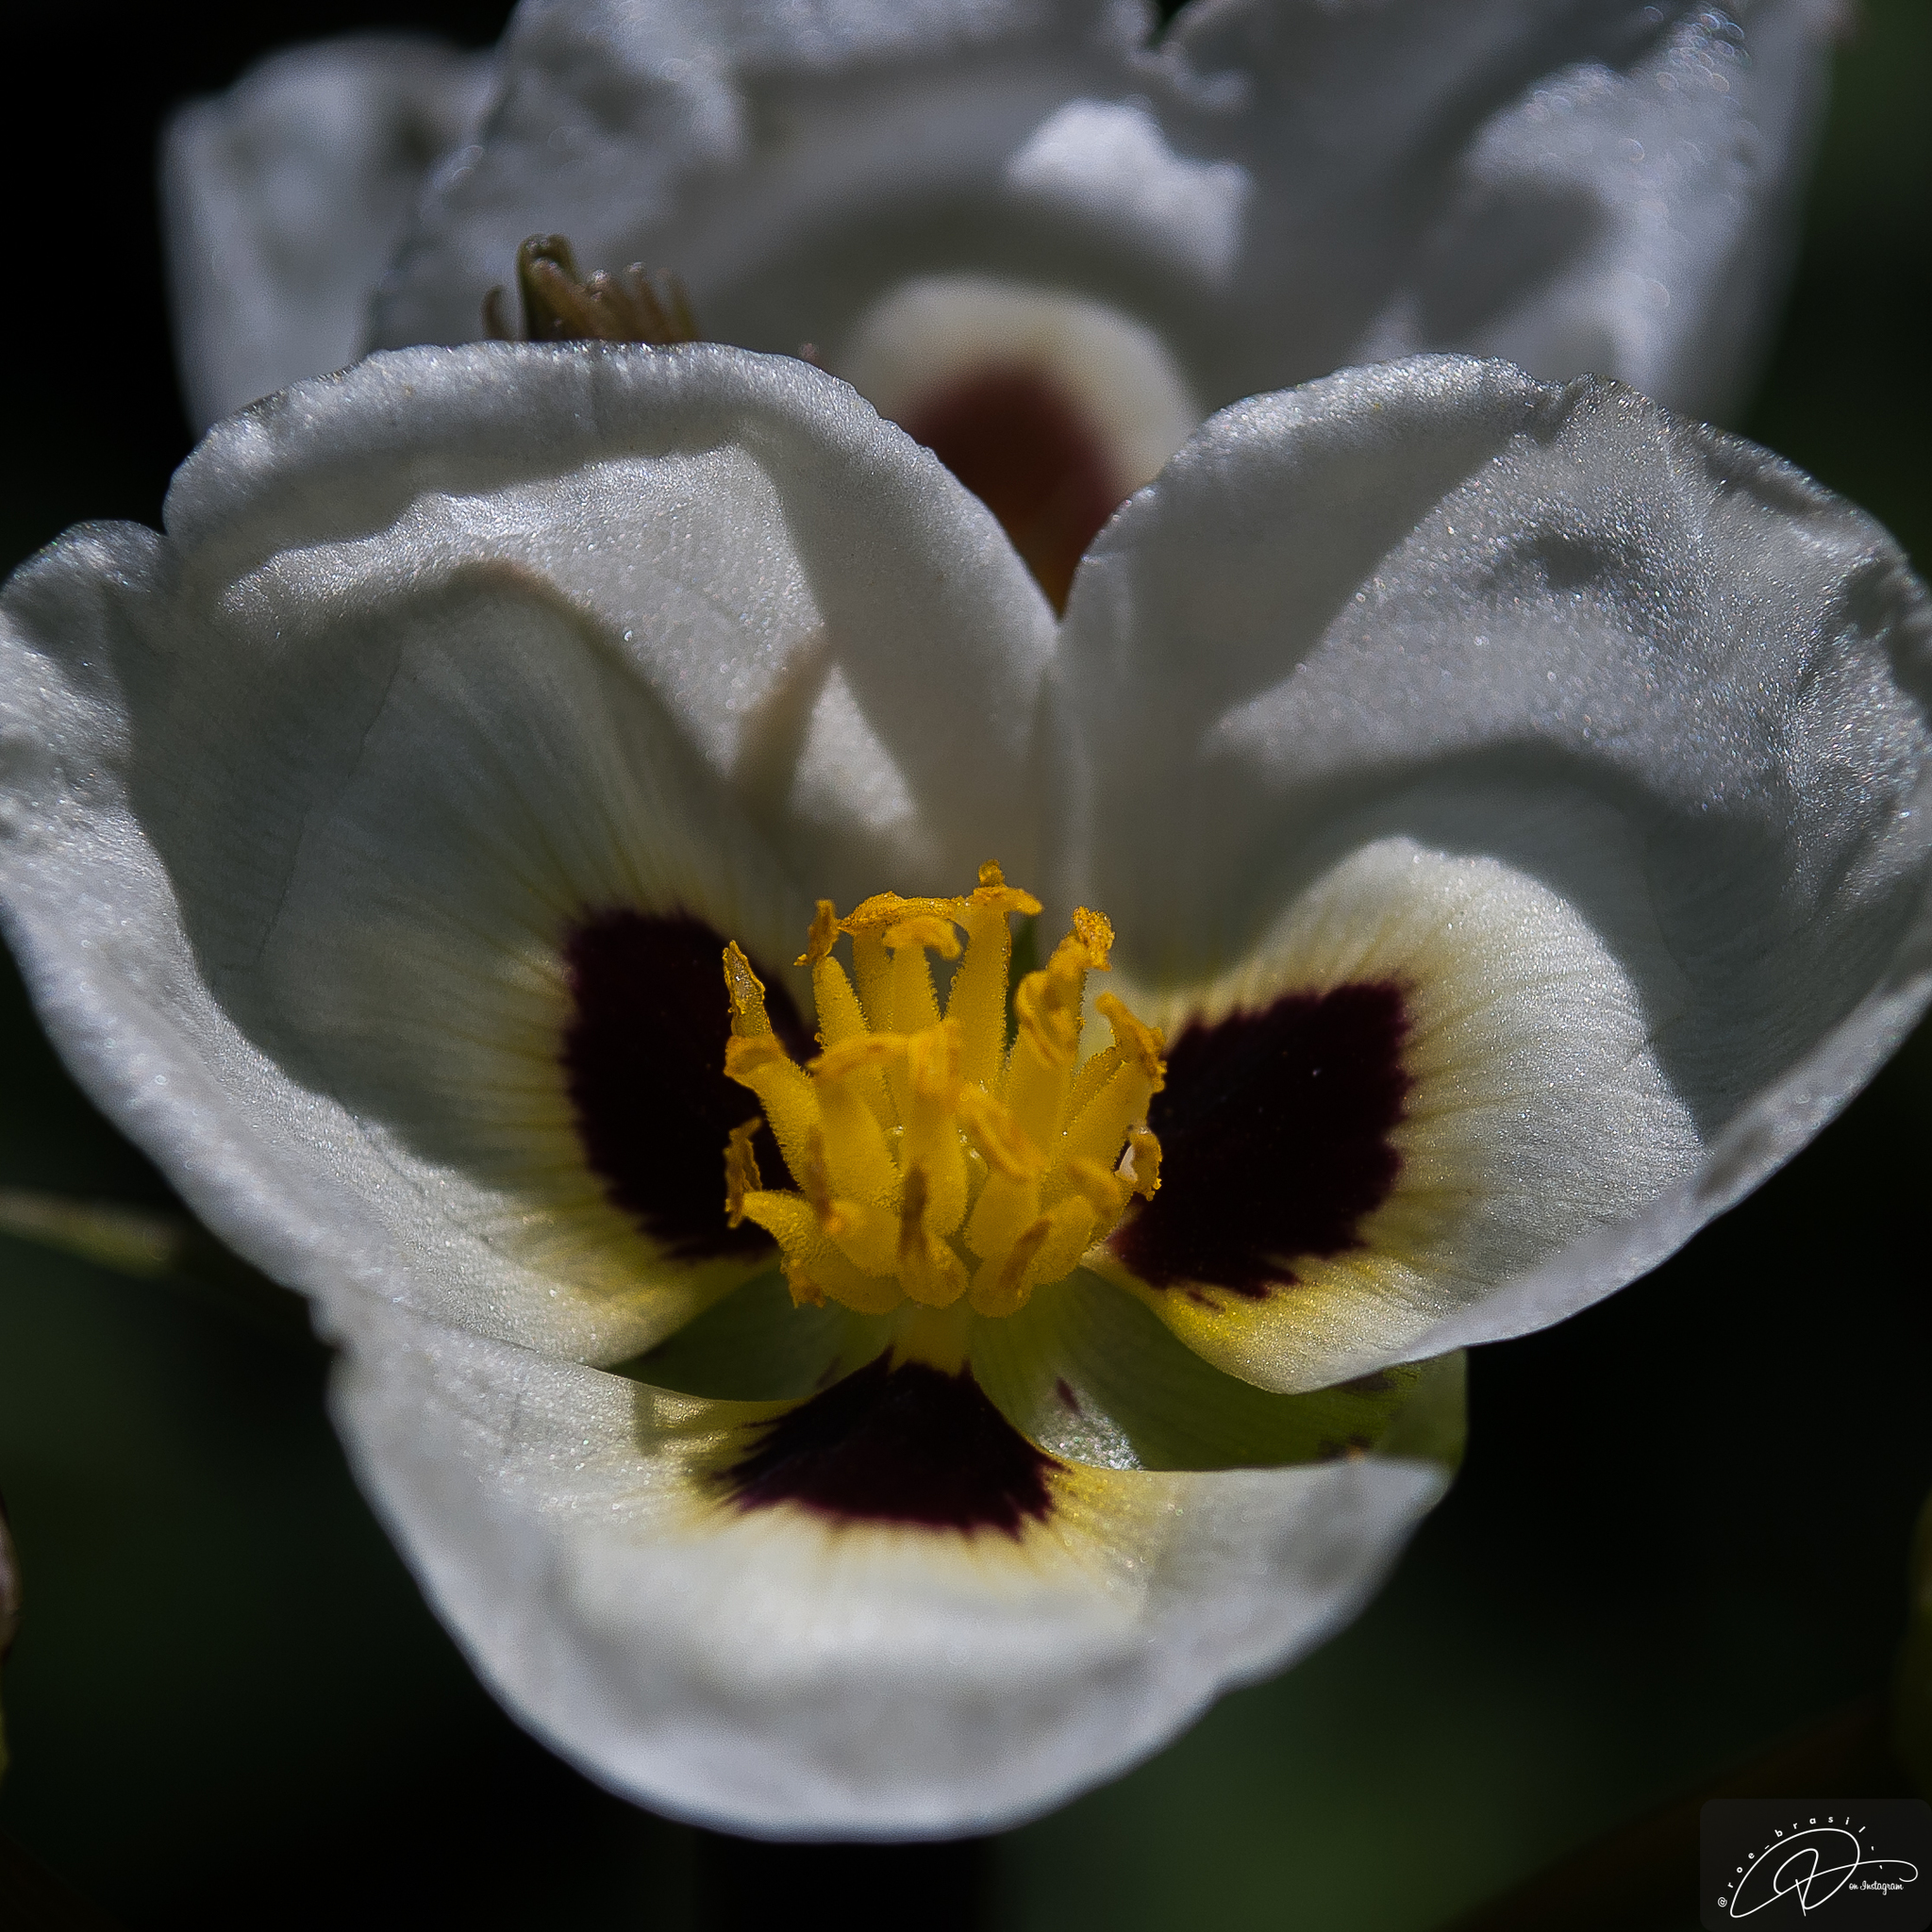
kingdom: Plantae
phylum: Tracheophyta
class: Liliopsida
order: Alismatales
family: Alismataceae
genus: Sagittaria
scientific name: Sagittaria montevidensis
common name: Giant arrowhead
